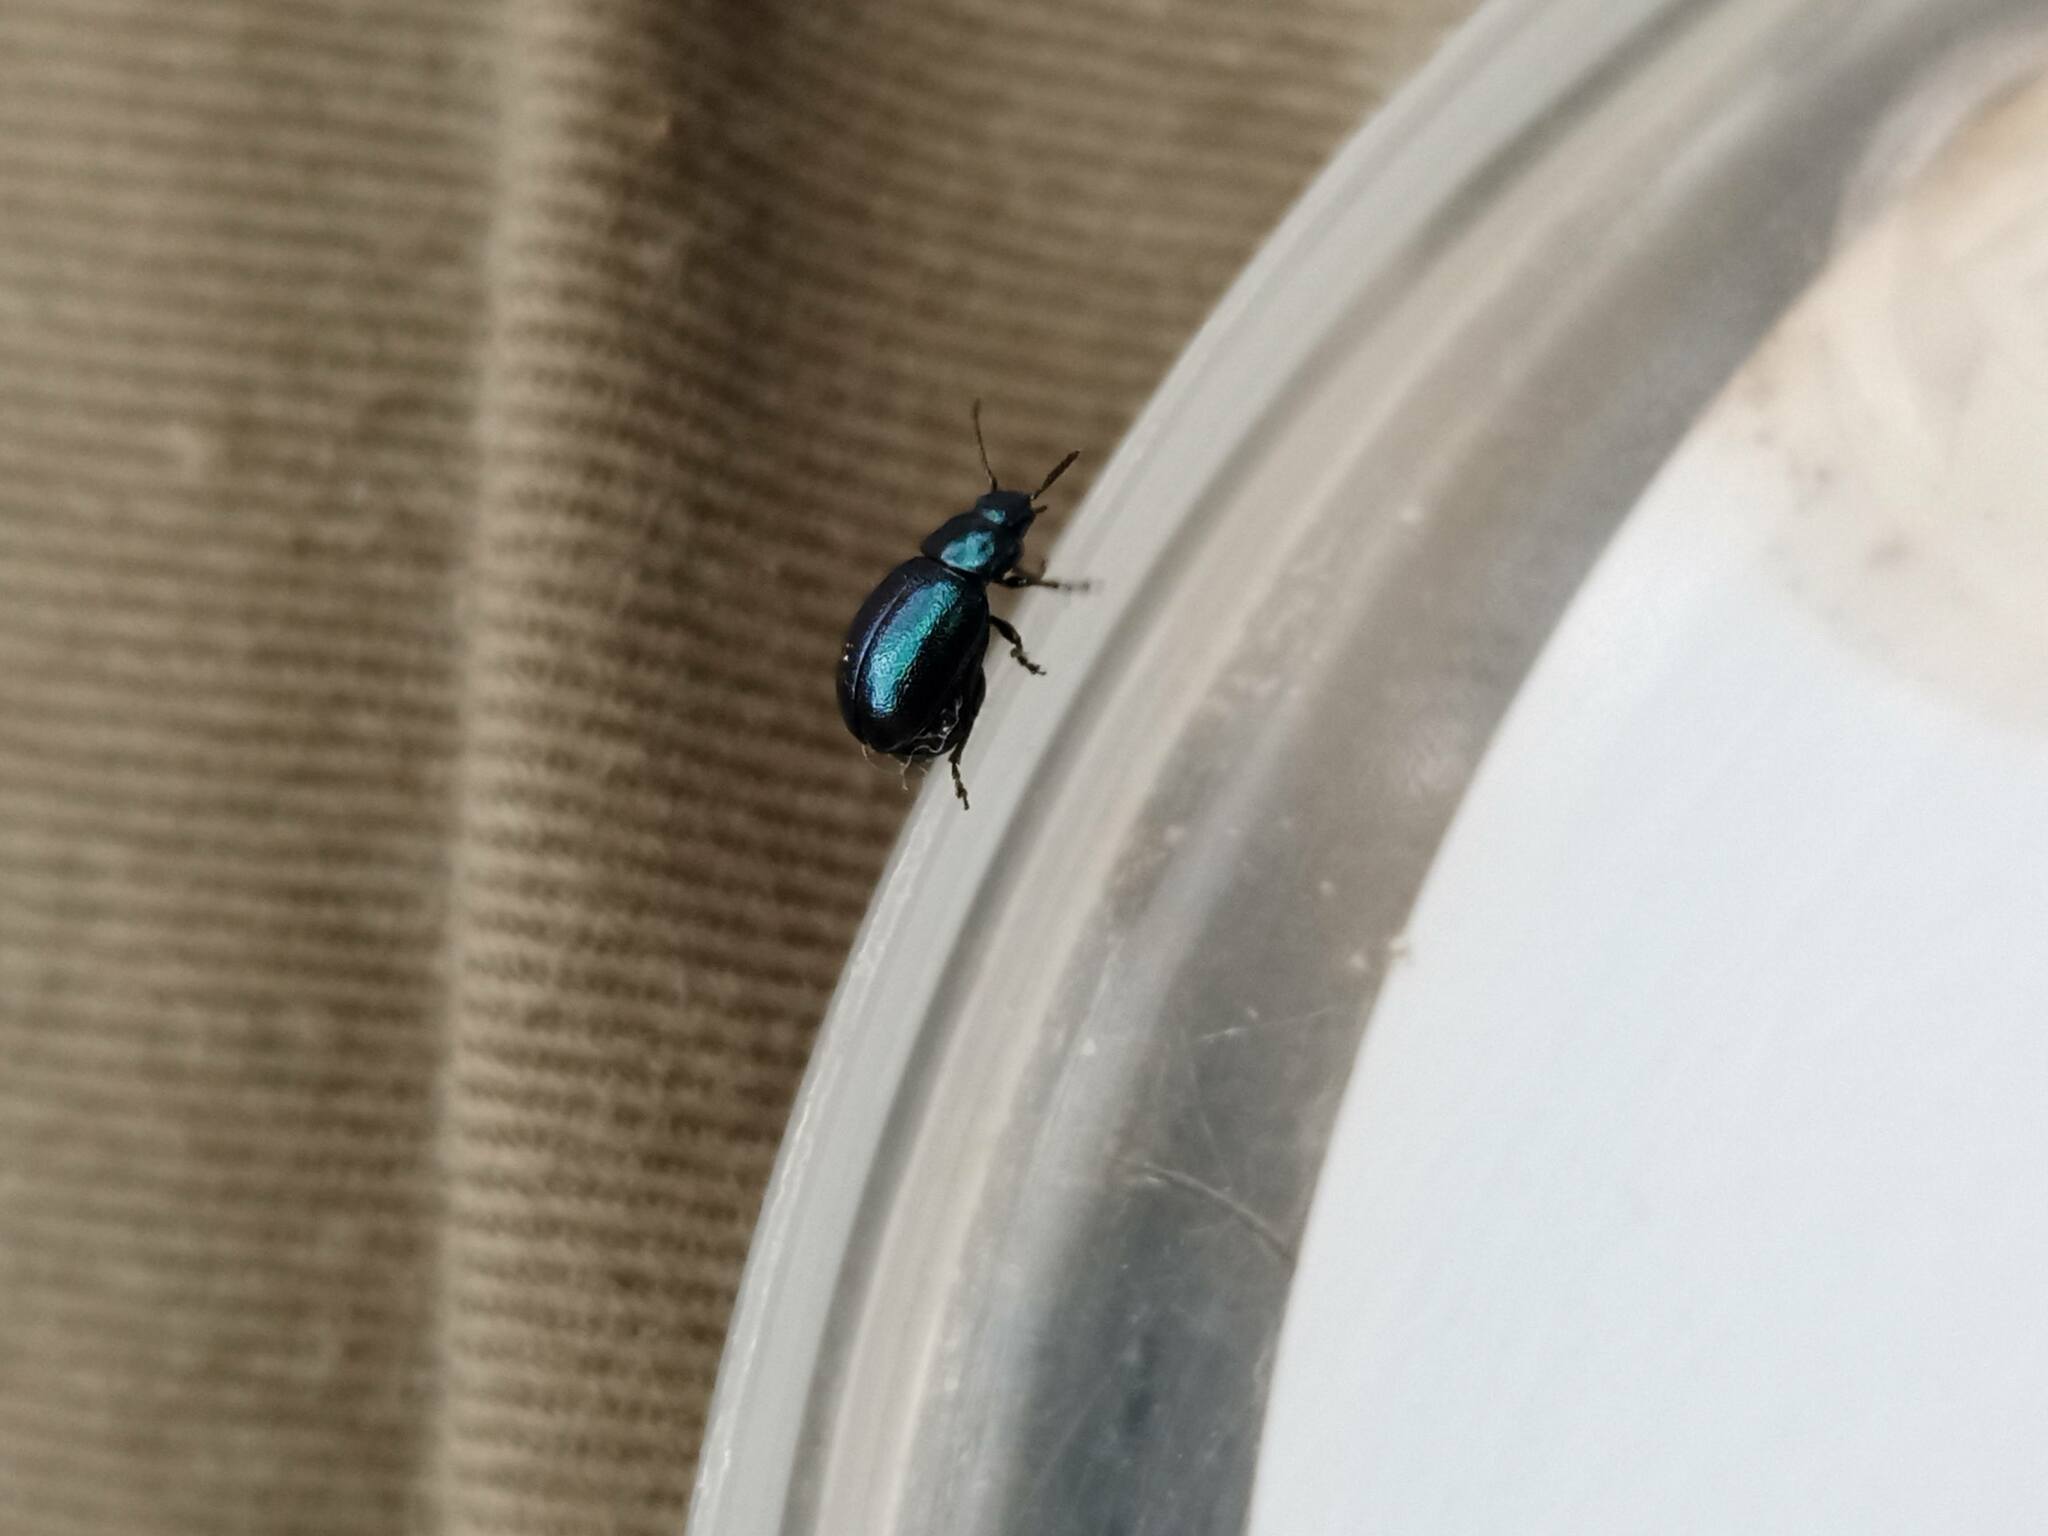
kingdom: Animalia
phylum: Arthropoda
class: Insecta
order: Coleoptera
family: Chrysomelidae
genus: Gastrophysa
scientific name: Gastrophysa janthina
